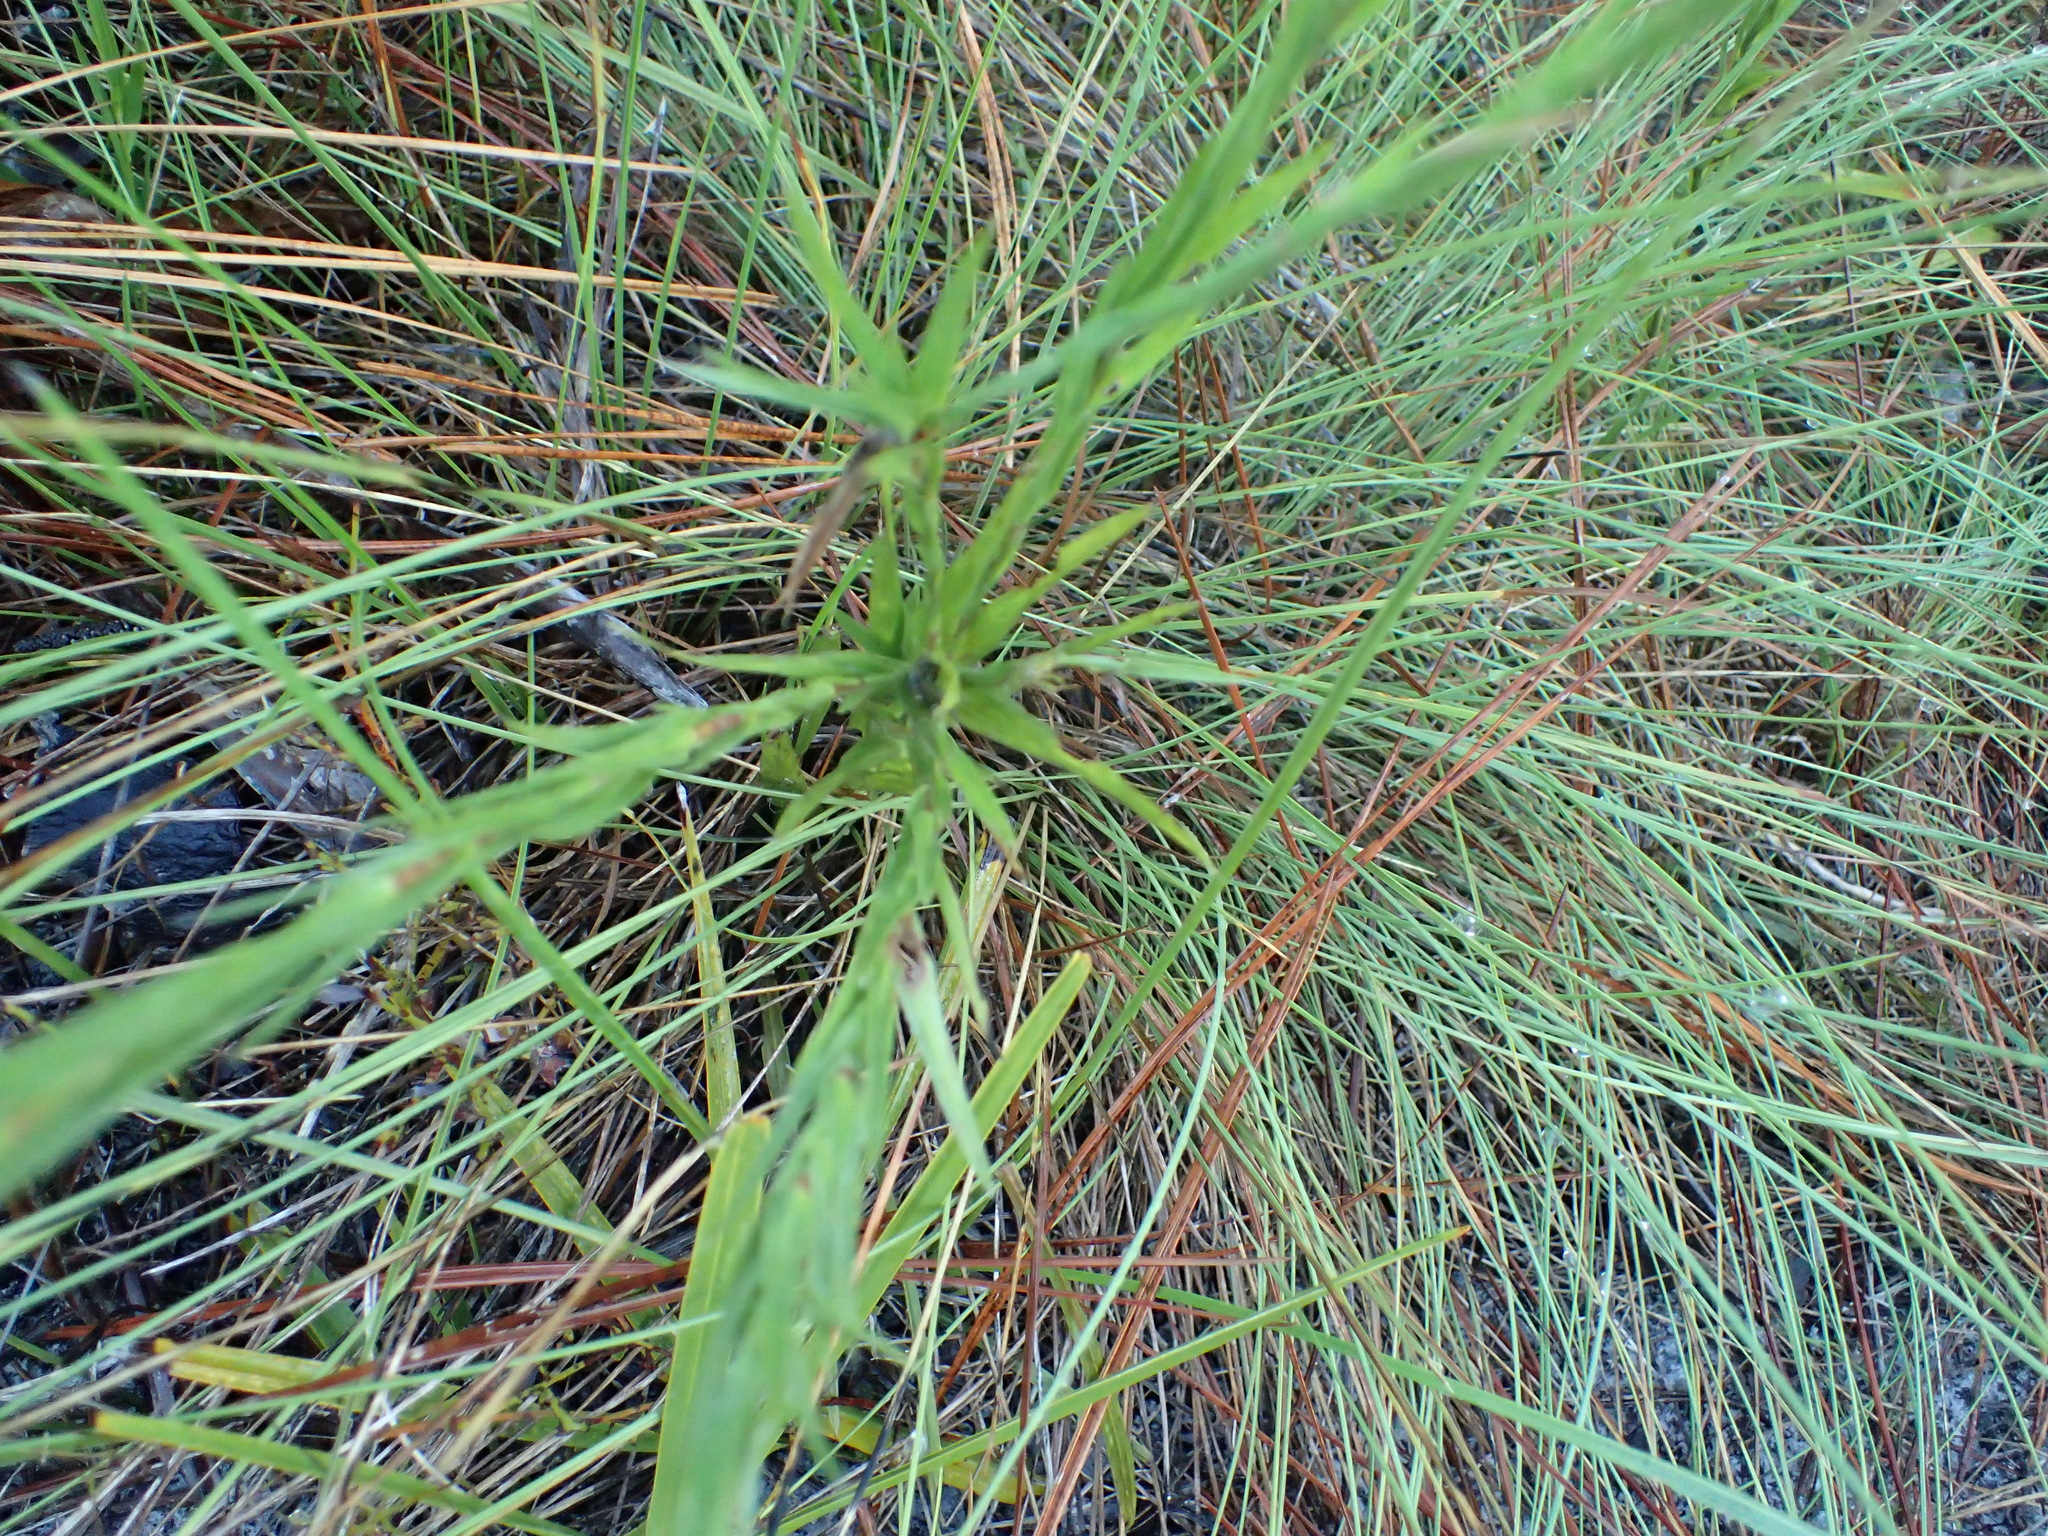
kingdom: Plantae
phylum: Tracheophyta
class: Magnoliopsida
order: Asterales
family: Asteraceae
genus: Pityopsis
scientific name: Pityopsis graminifolia
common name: Grass-leaf golden-aster
